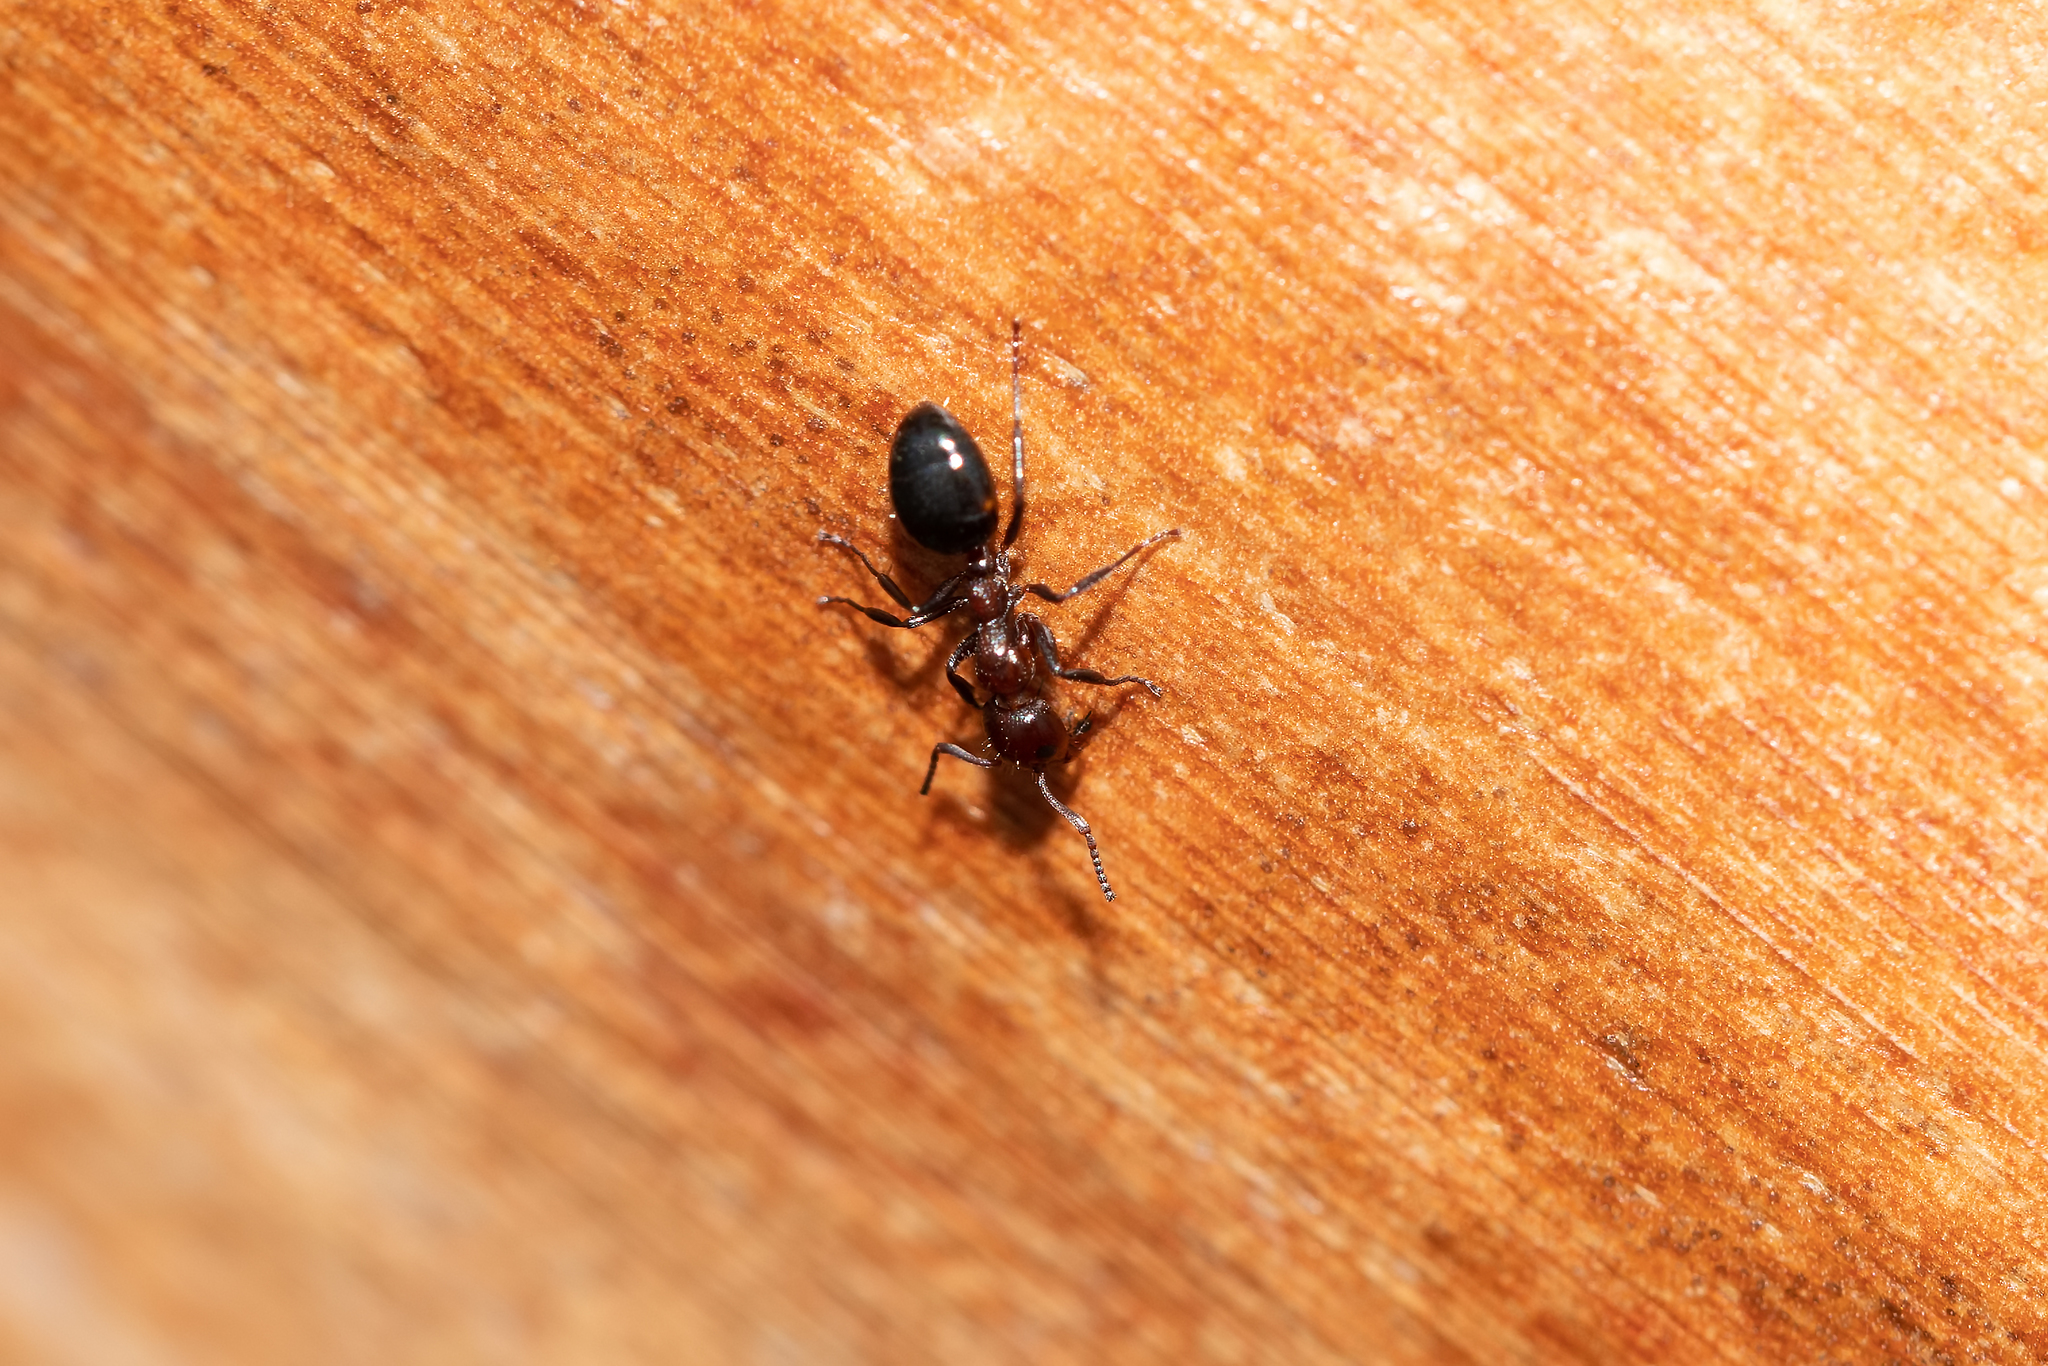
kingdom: Animalia
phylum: Arthropoda
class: Insecta
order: Hymenoptera
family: Formicidae
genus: Dolichoderus
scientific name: Dolichoderus pustulatus
